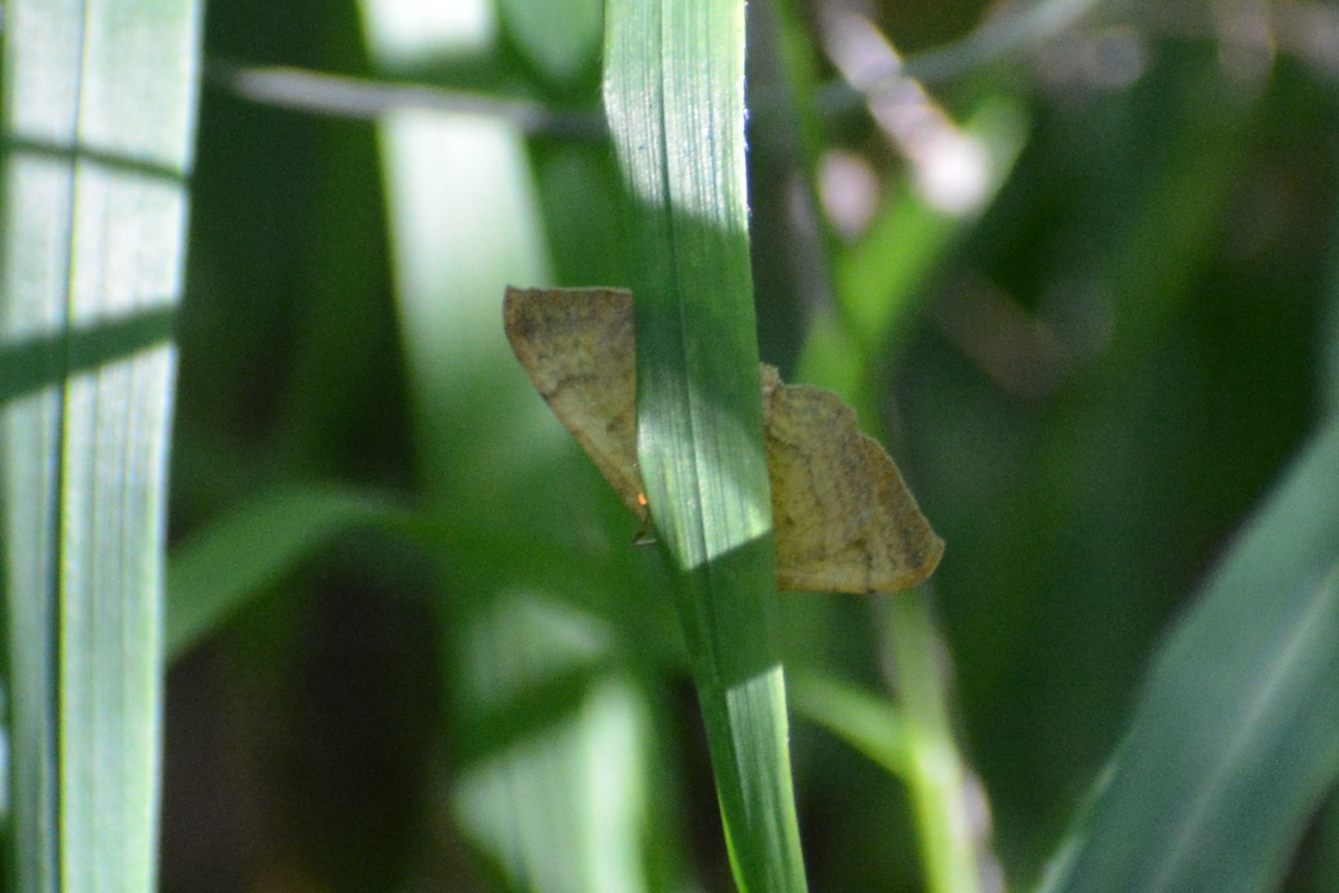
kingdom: Animalia
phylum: Arthropoda
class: Insecta
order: Lepidoptera
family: Geometridae
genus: Camptogramma
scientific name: Camptogramma bilineata
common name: Yellow shell
